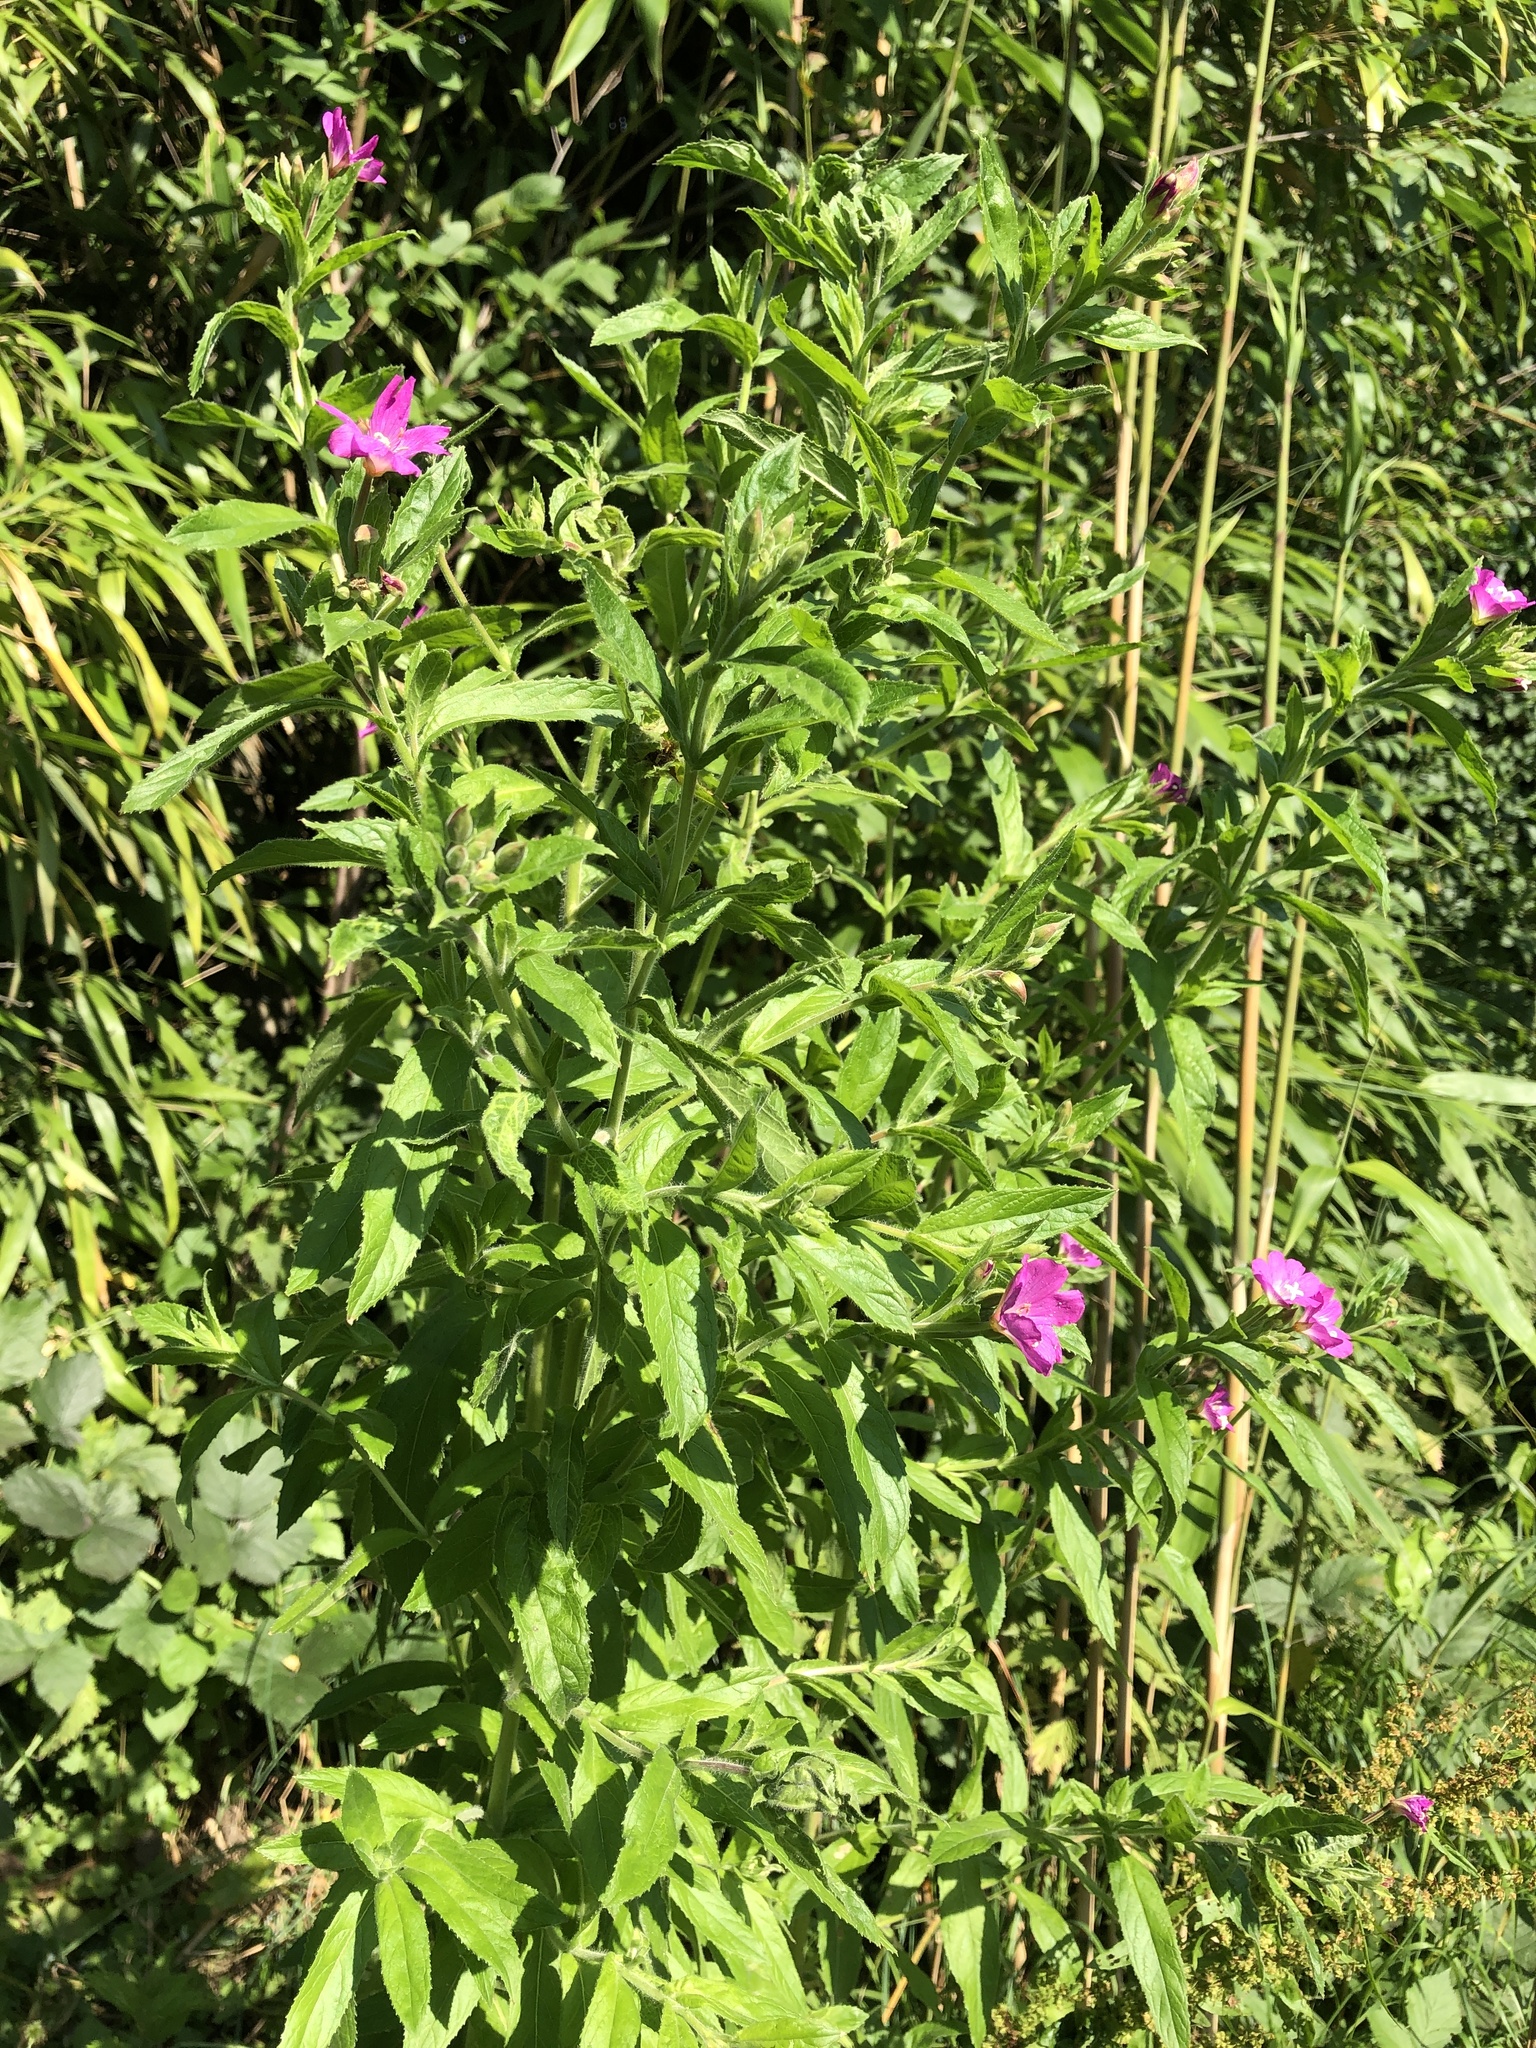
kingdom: Plantae
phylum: Tracheophyta
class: Magnoliopsida
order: Myrtales
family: Onagraceae
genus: Epilobium
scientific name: Epilobium hirsutum
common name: Great willowherb
